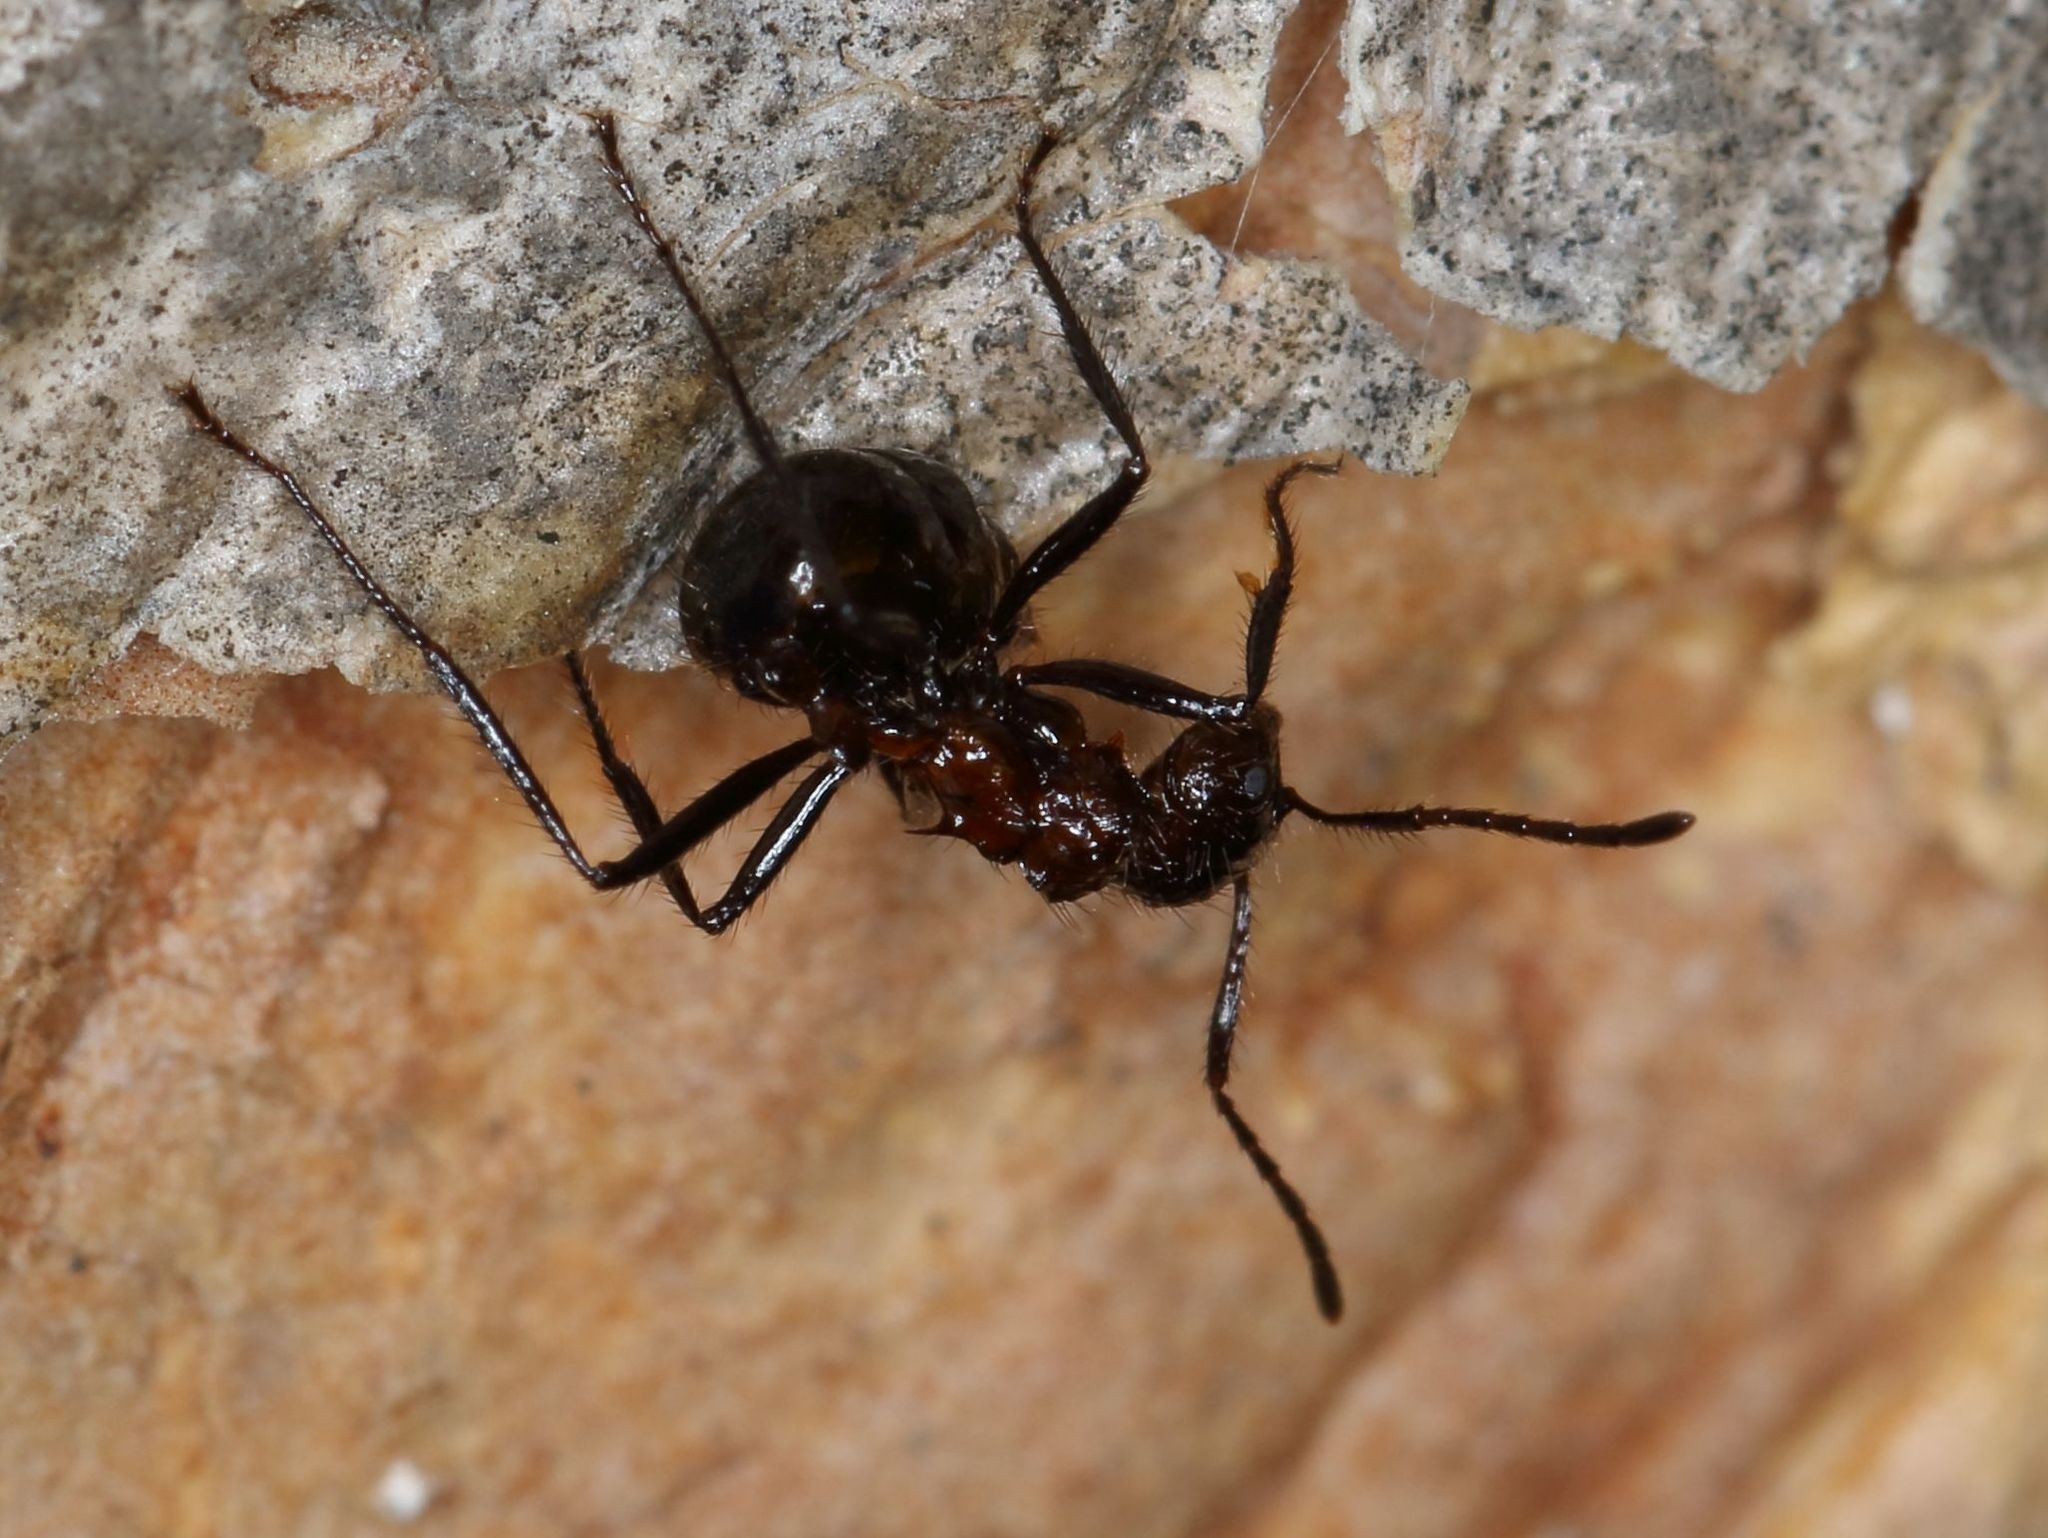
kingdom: Animalia
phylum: Arthropoda
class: Insecta
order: Hymenoptera
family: Formicidae
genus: Myrmicaria
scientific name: Myrmicaria natalensis
